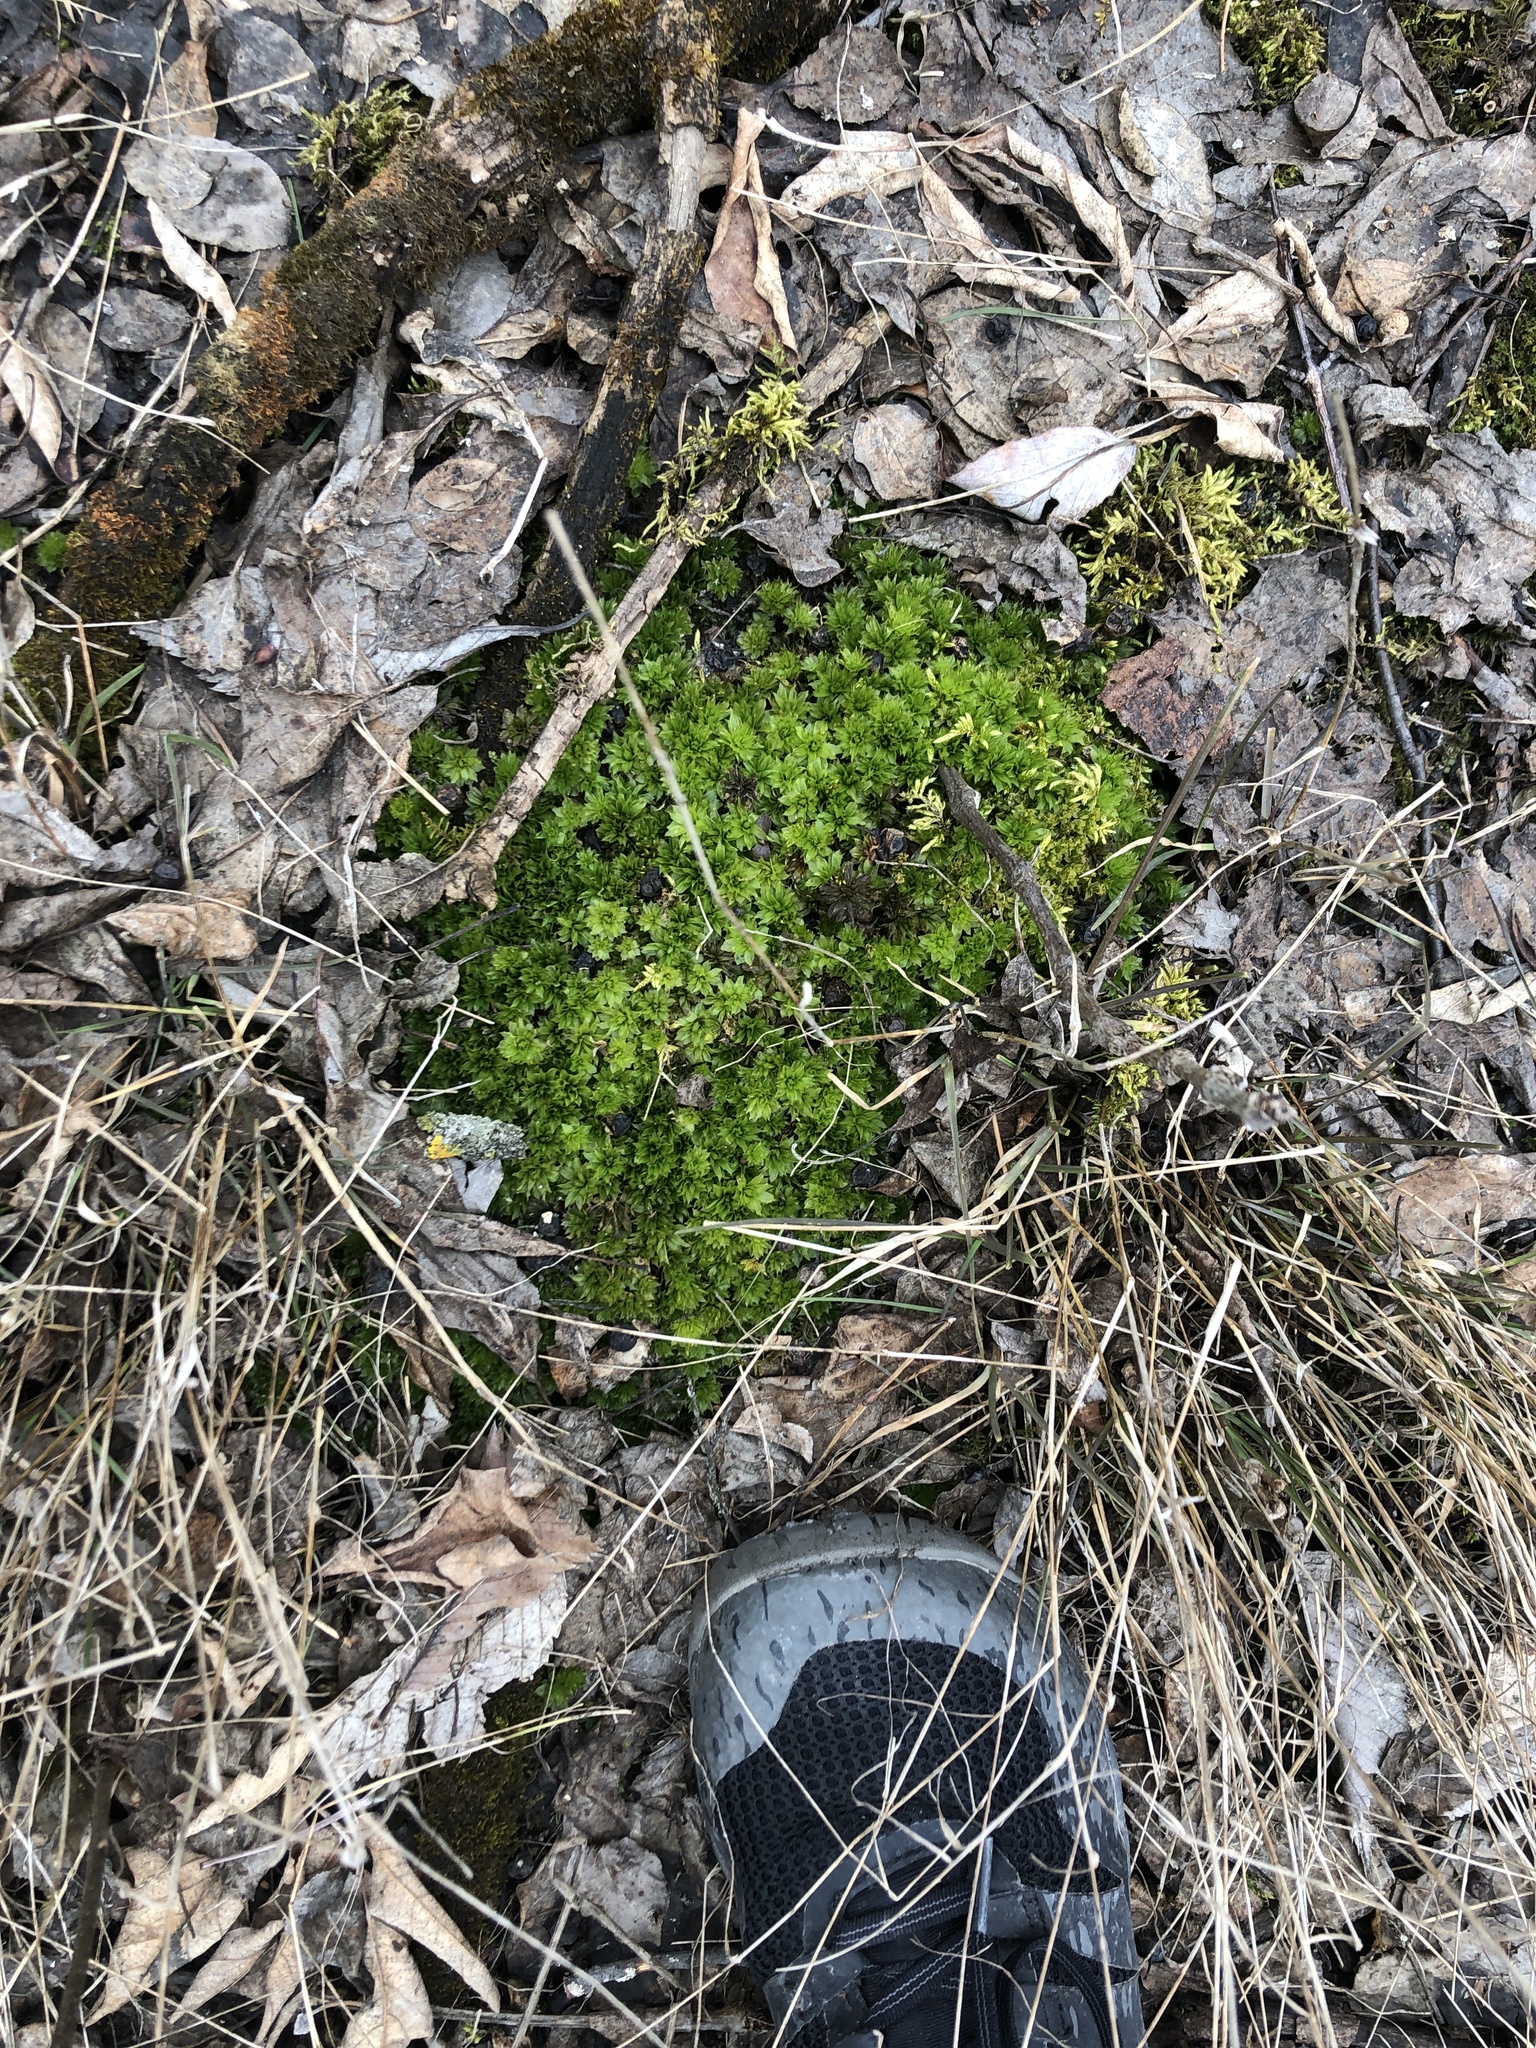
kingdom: Plantae
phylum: Bryophyta
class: Bryopsida
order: Bryales
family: Bryaceae
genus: Rhodobryum
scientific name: Rhodobryum ontariense
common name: Ontario rhodobryum moss
